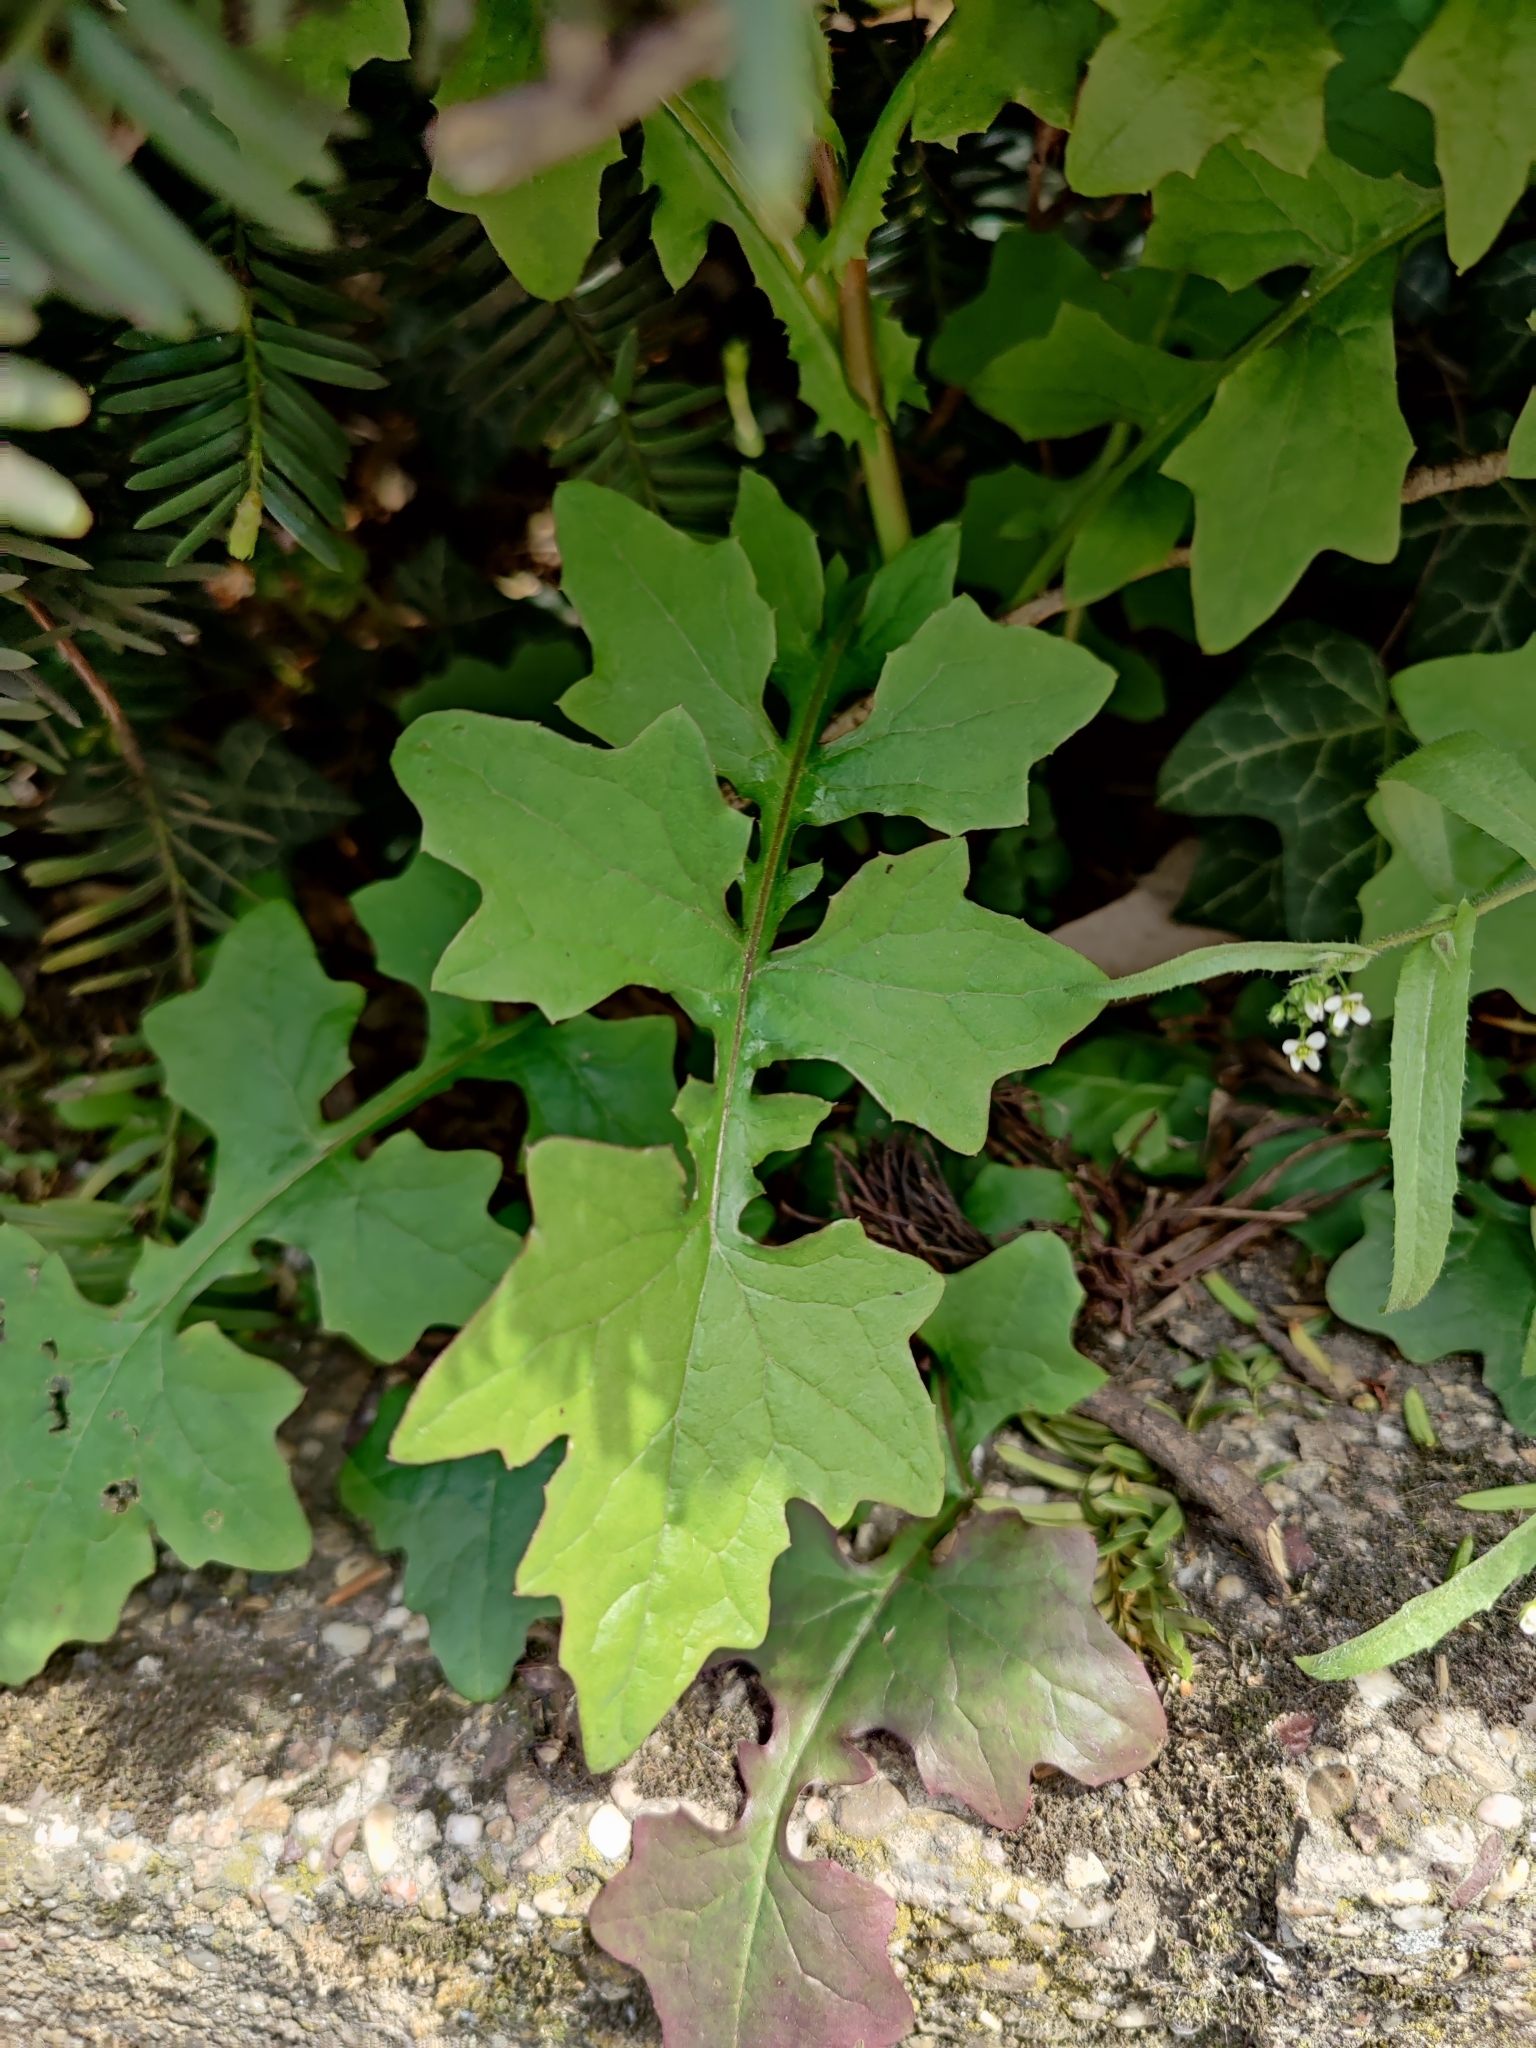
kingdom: Plantae
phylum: Tracheophyta
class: Magnoliopsida
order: Asterales
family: Asteraceae
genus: Mycelis
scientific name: Mycelis muralis
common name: Wall lettuce
